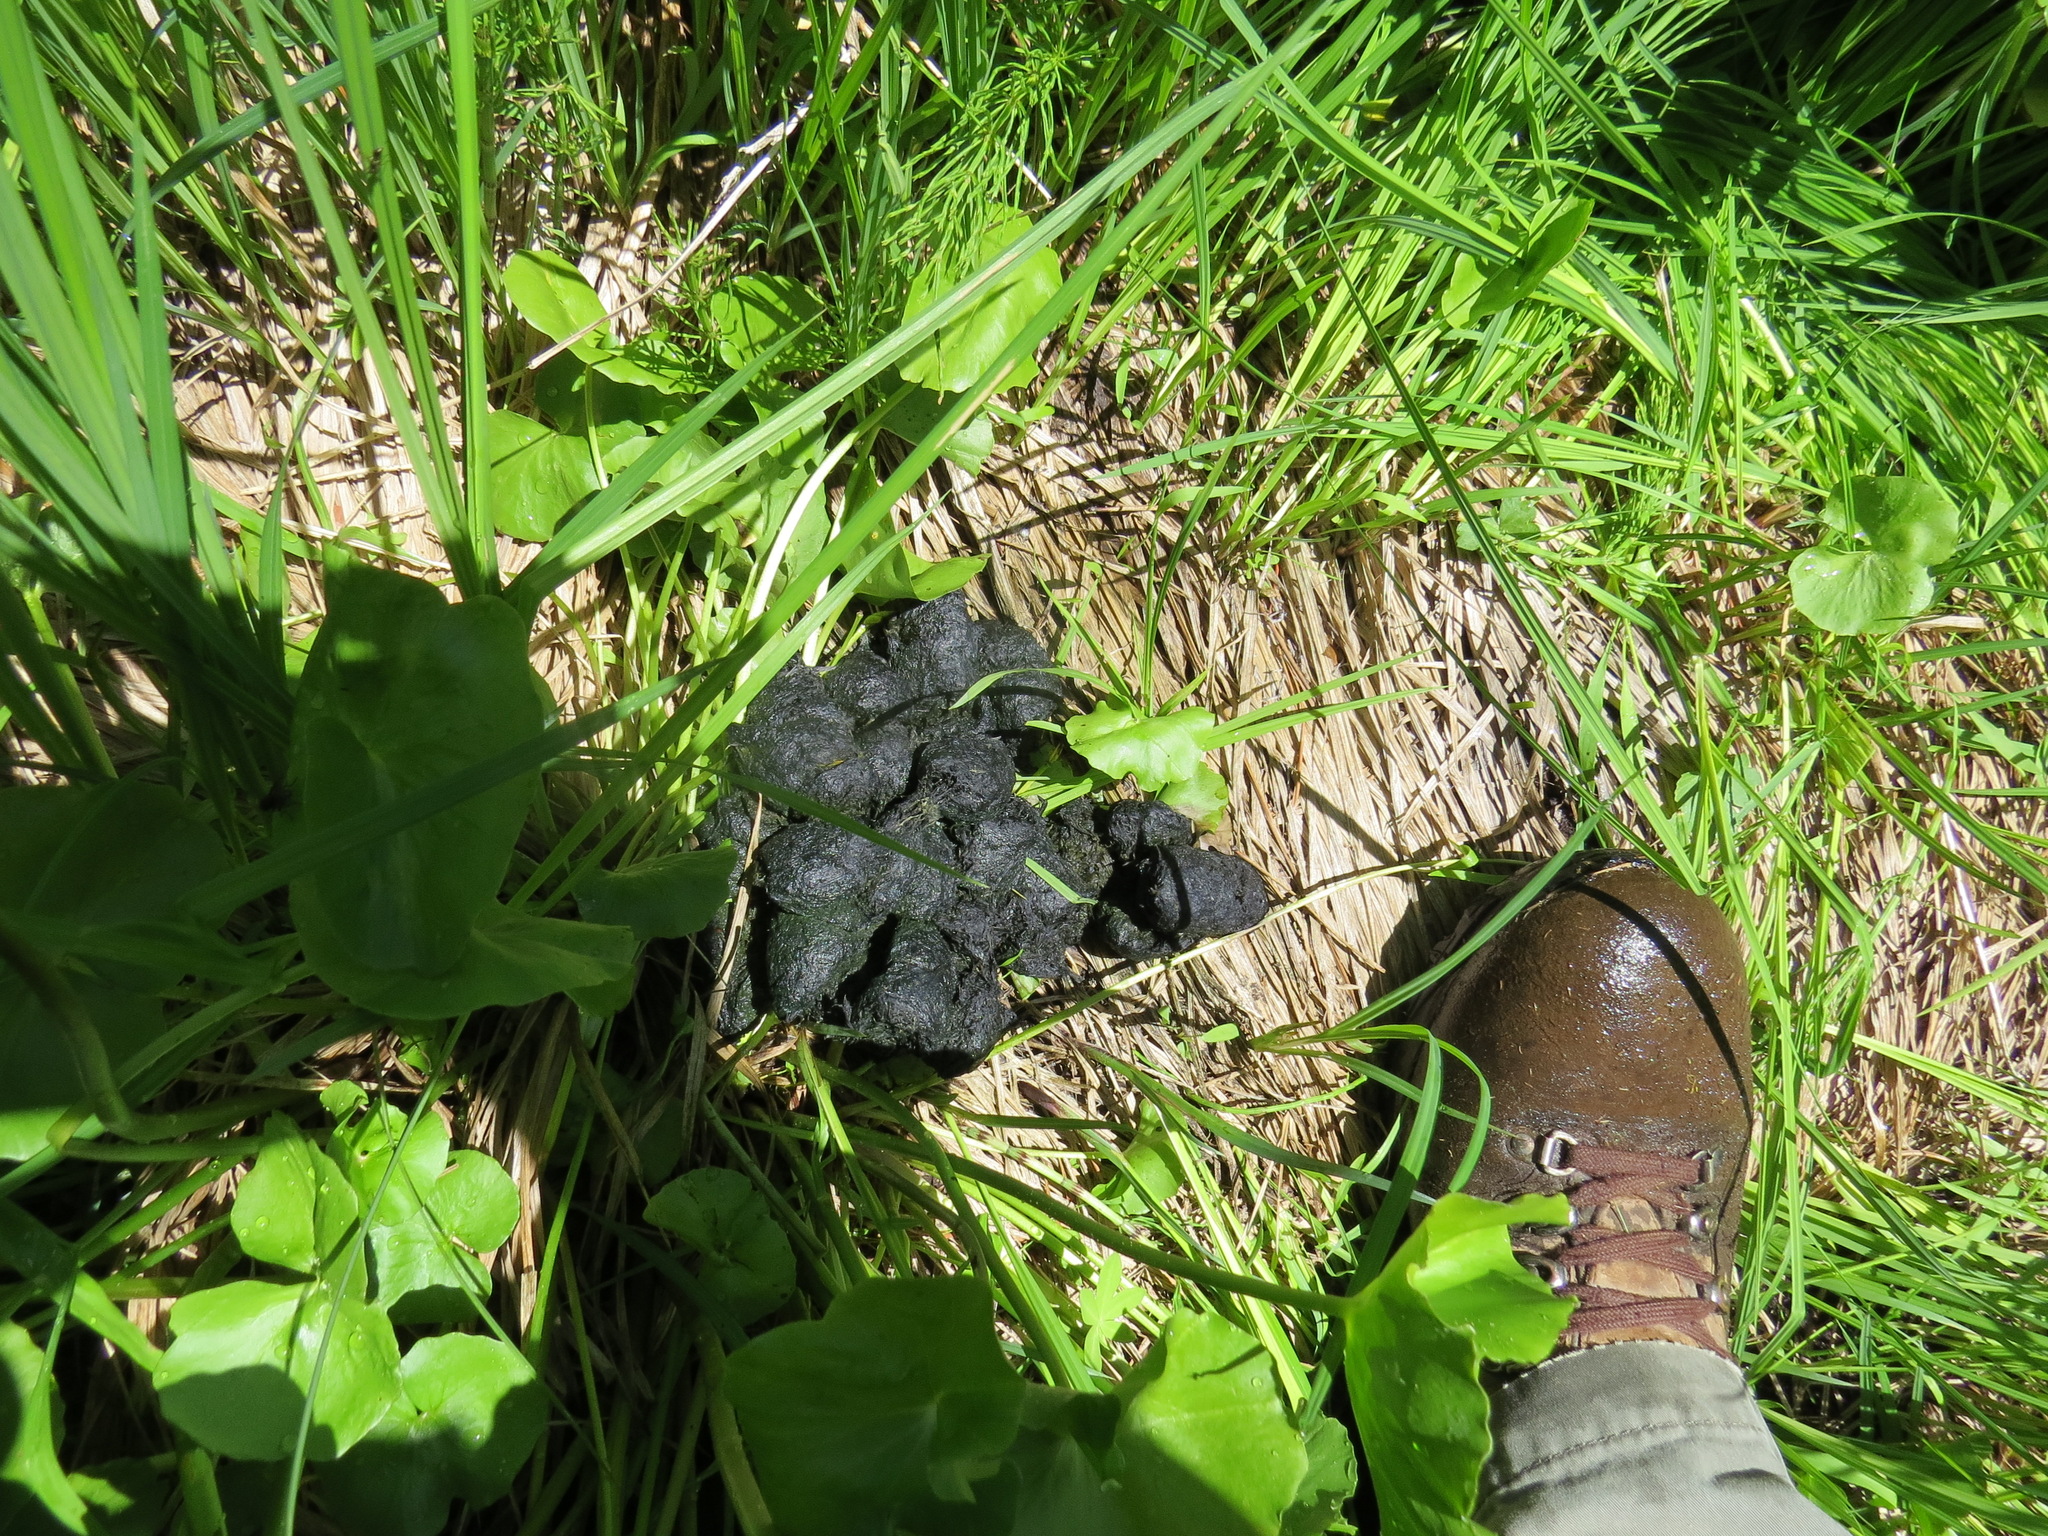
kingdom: Animalia
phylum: Chordata
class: Mammalia
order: Carnivora
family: Ursidae
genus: Ursus
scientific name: Ursus americanus
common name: American black bear
